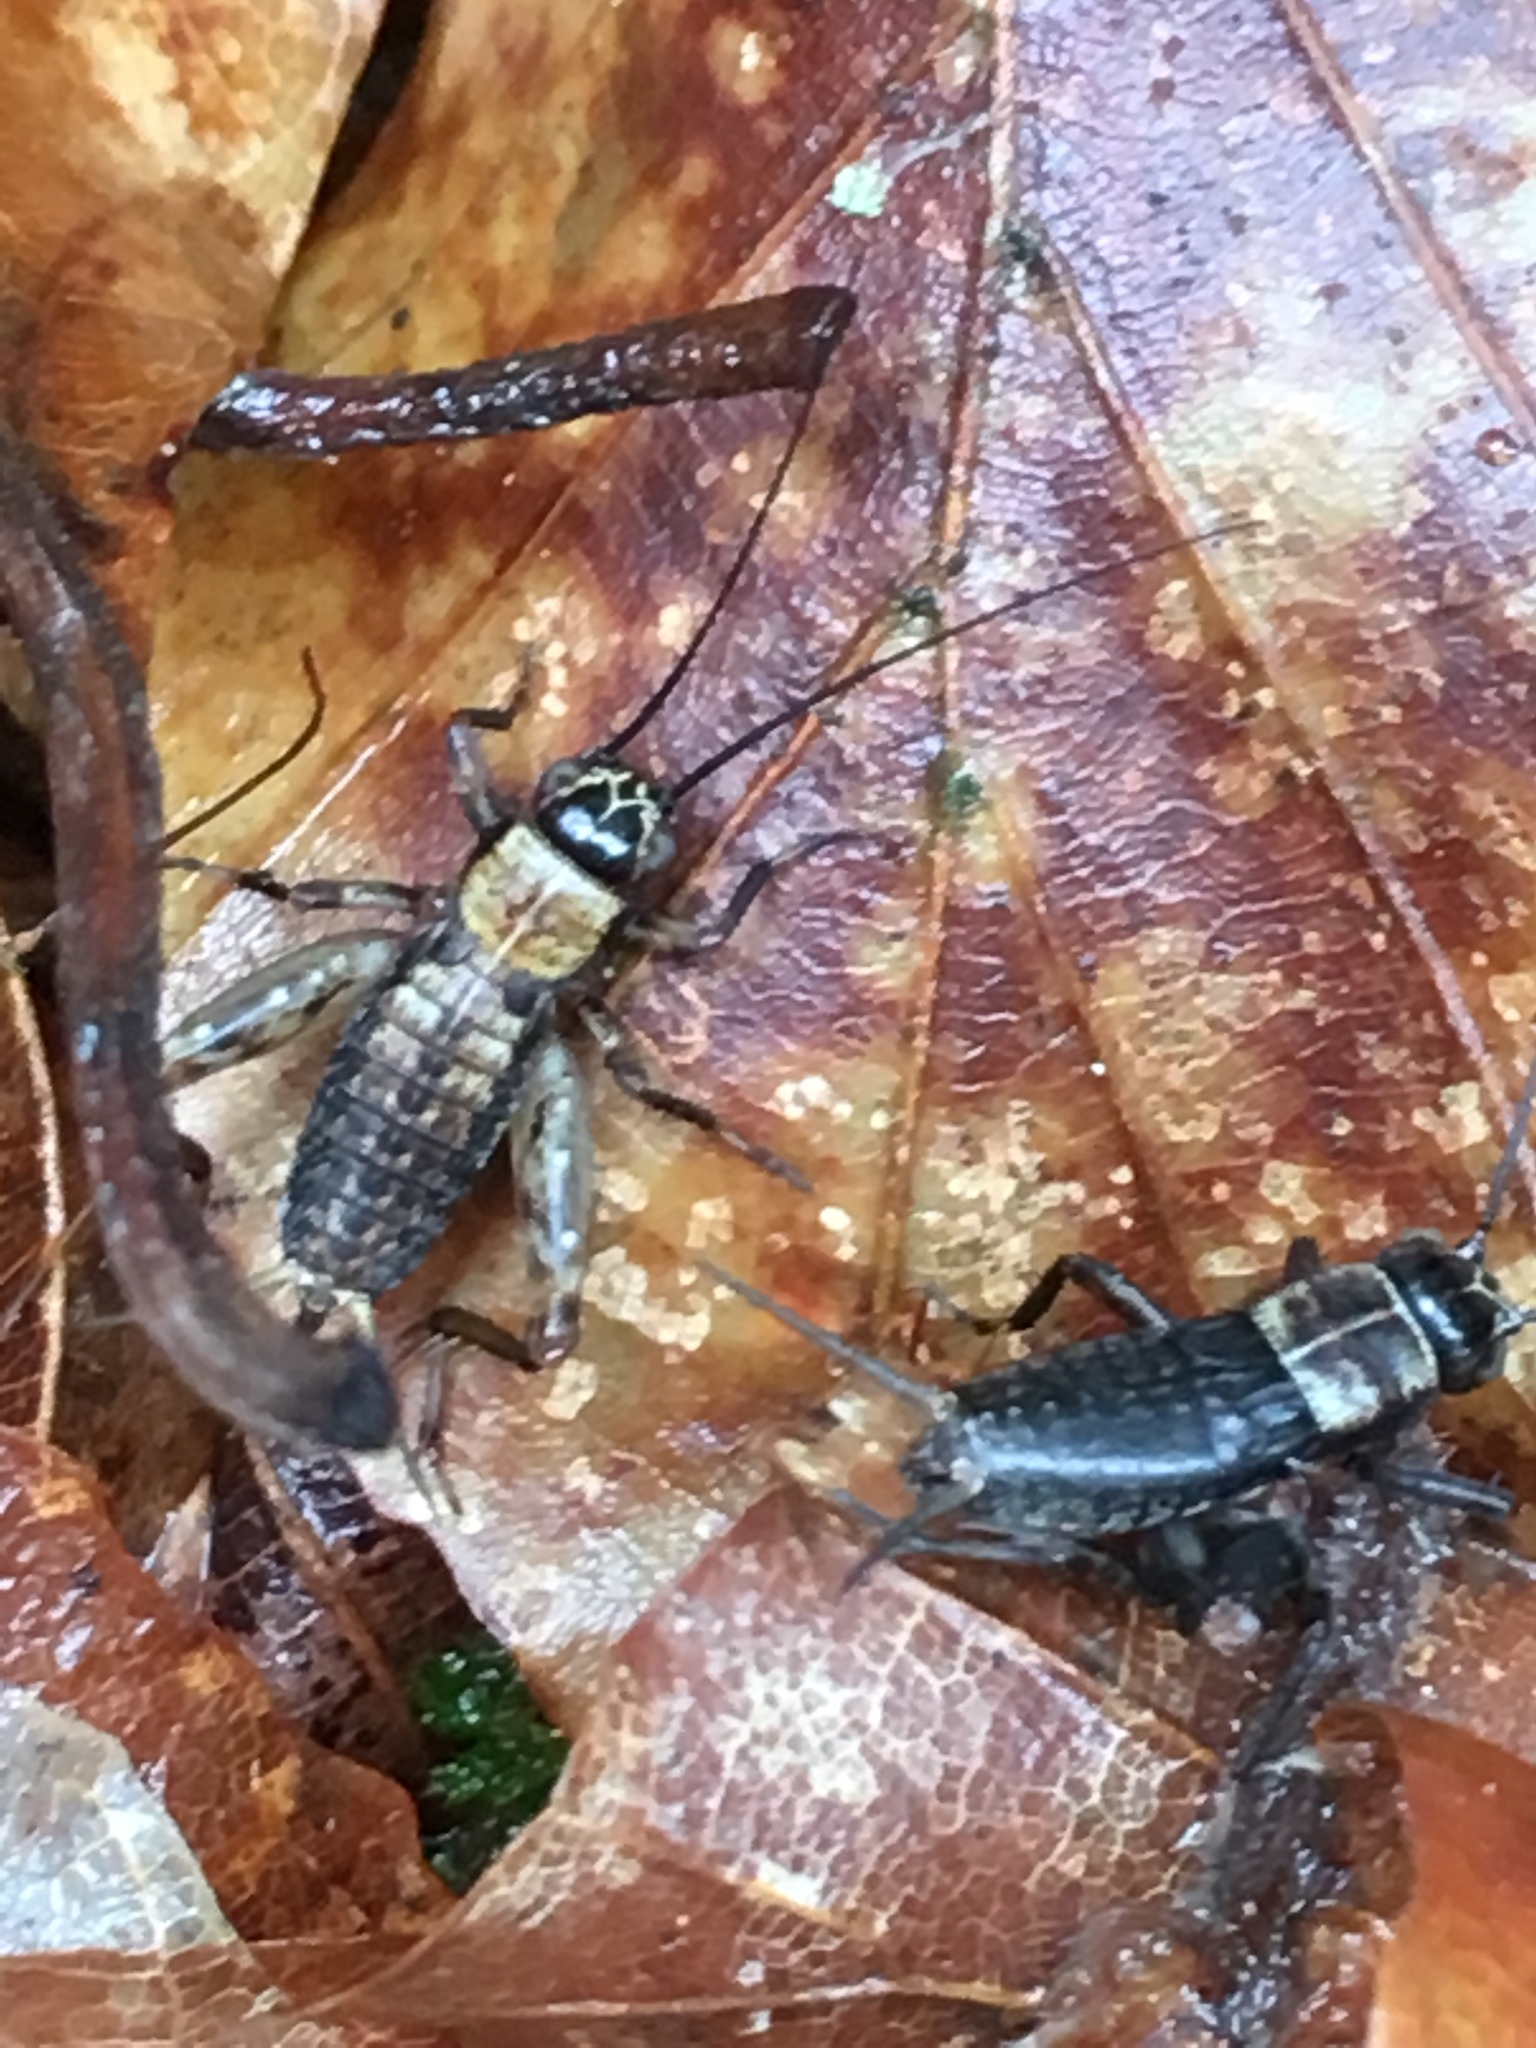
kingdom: Animalia
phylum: Arthropoda
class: Insecta
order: Orthoptera
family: Trigonidiidae
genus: Nemobius
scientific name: Nemobius sylvestris
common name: Wood-cricket
